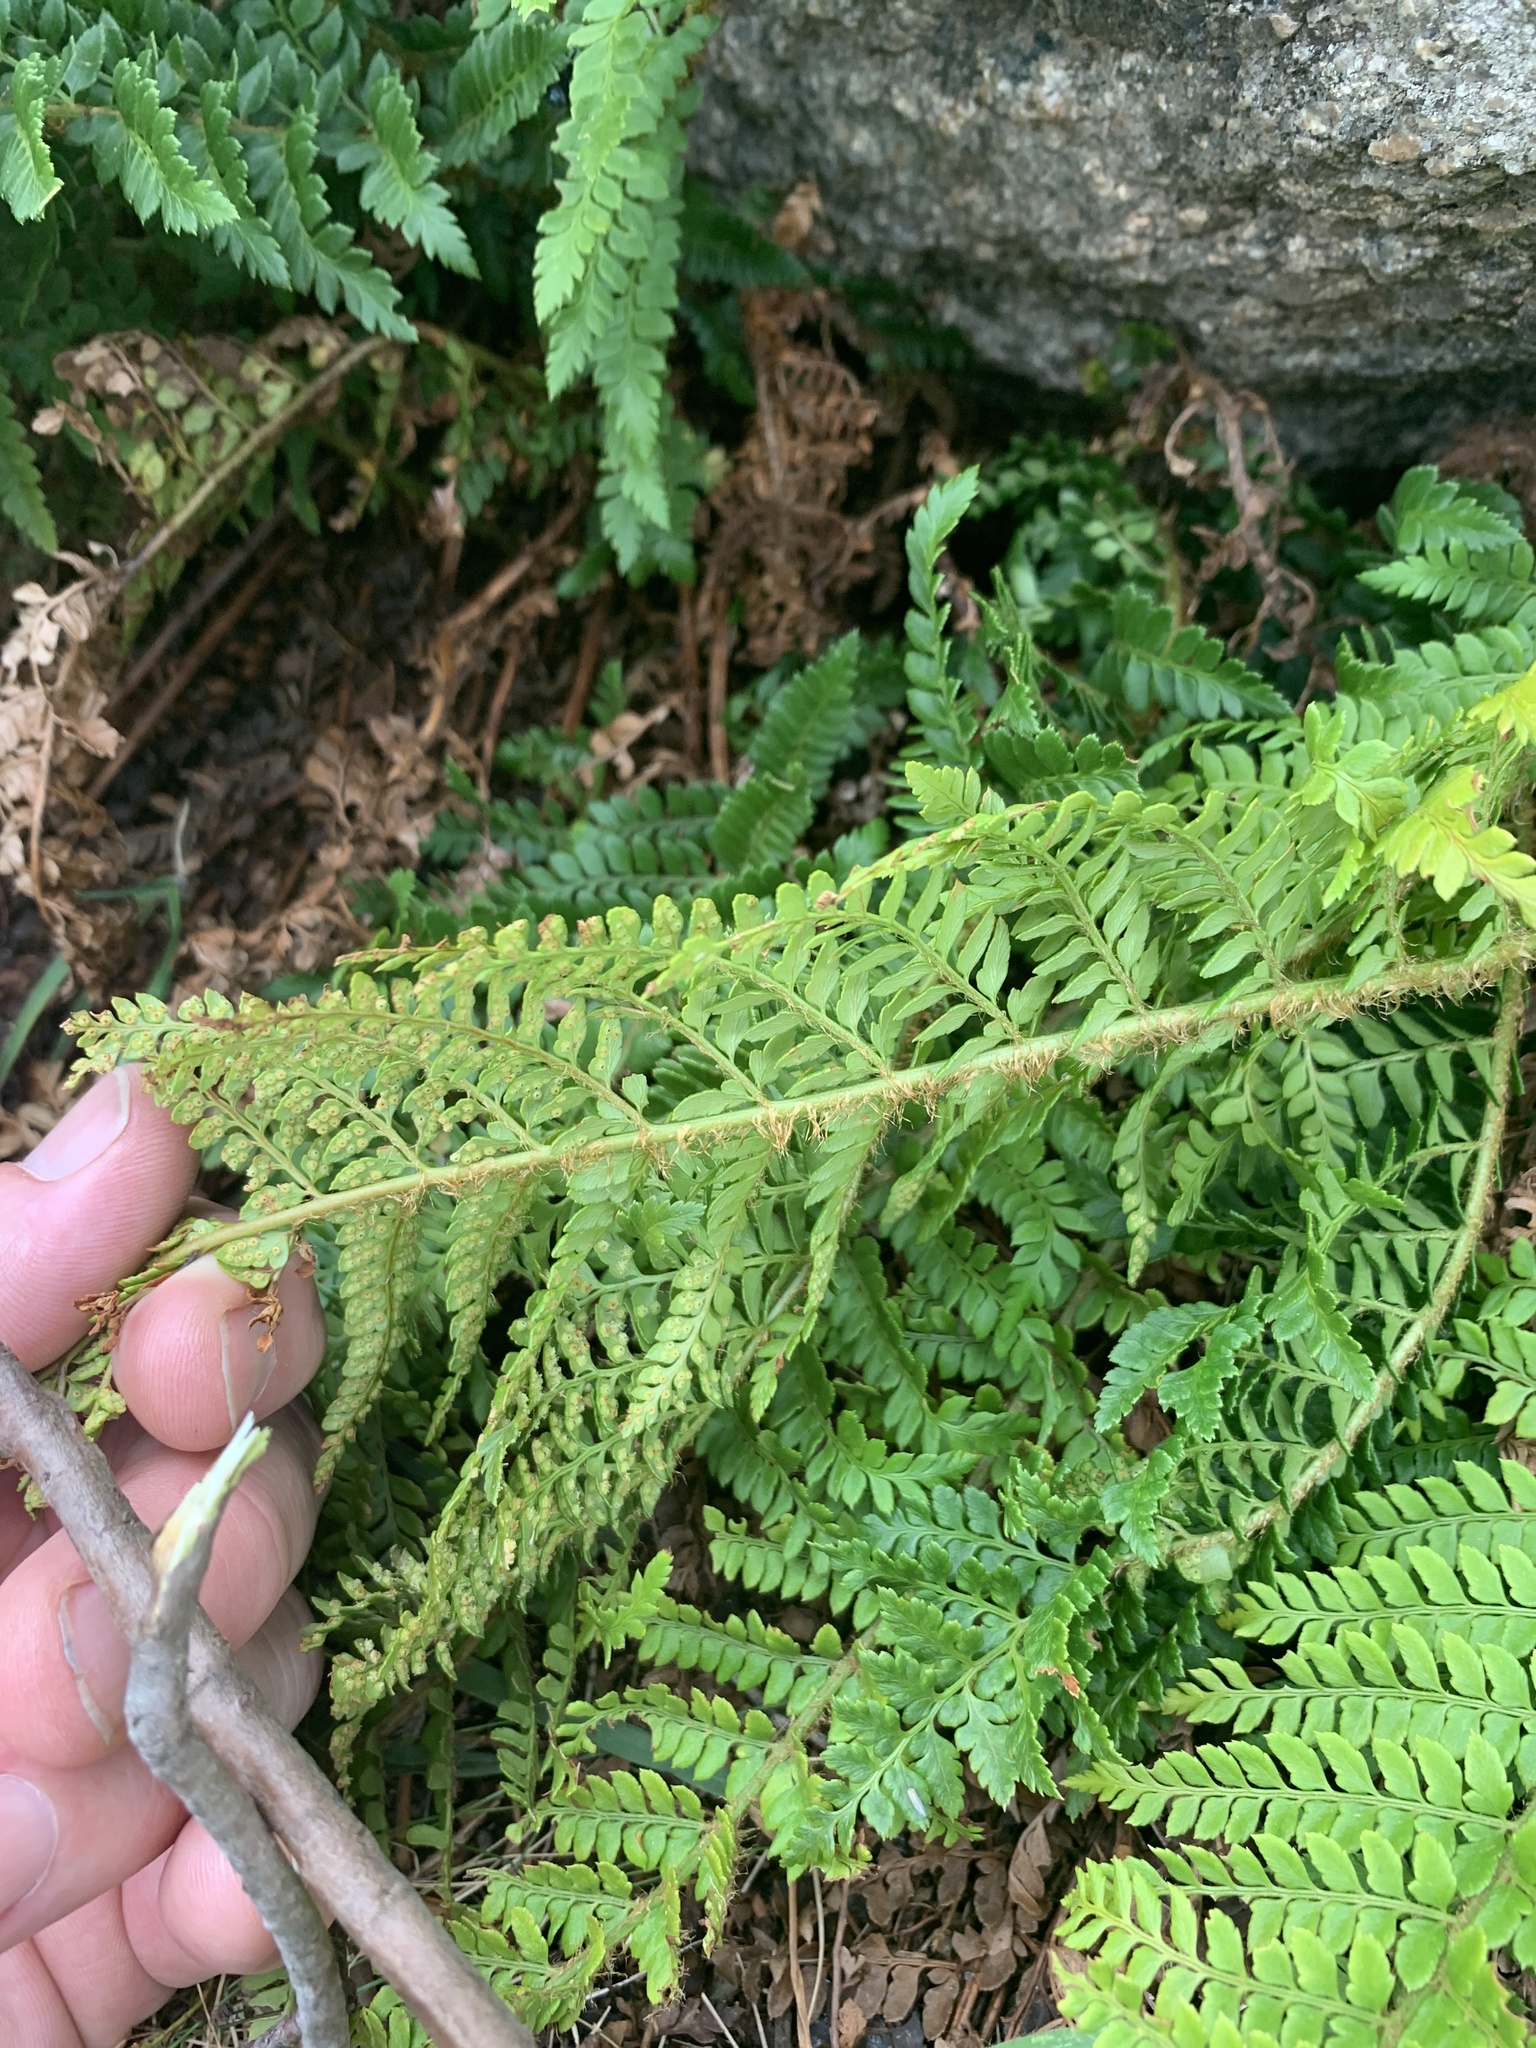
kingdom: Plantae
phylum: Tracheophyta
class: Polypodiopsida
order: Polypodiales
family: Dryopteridaceae
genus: Polystichum
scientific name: Polystichum proliferum
